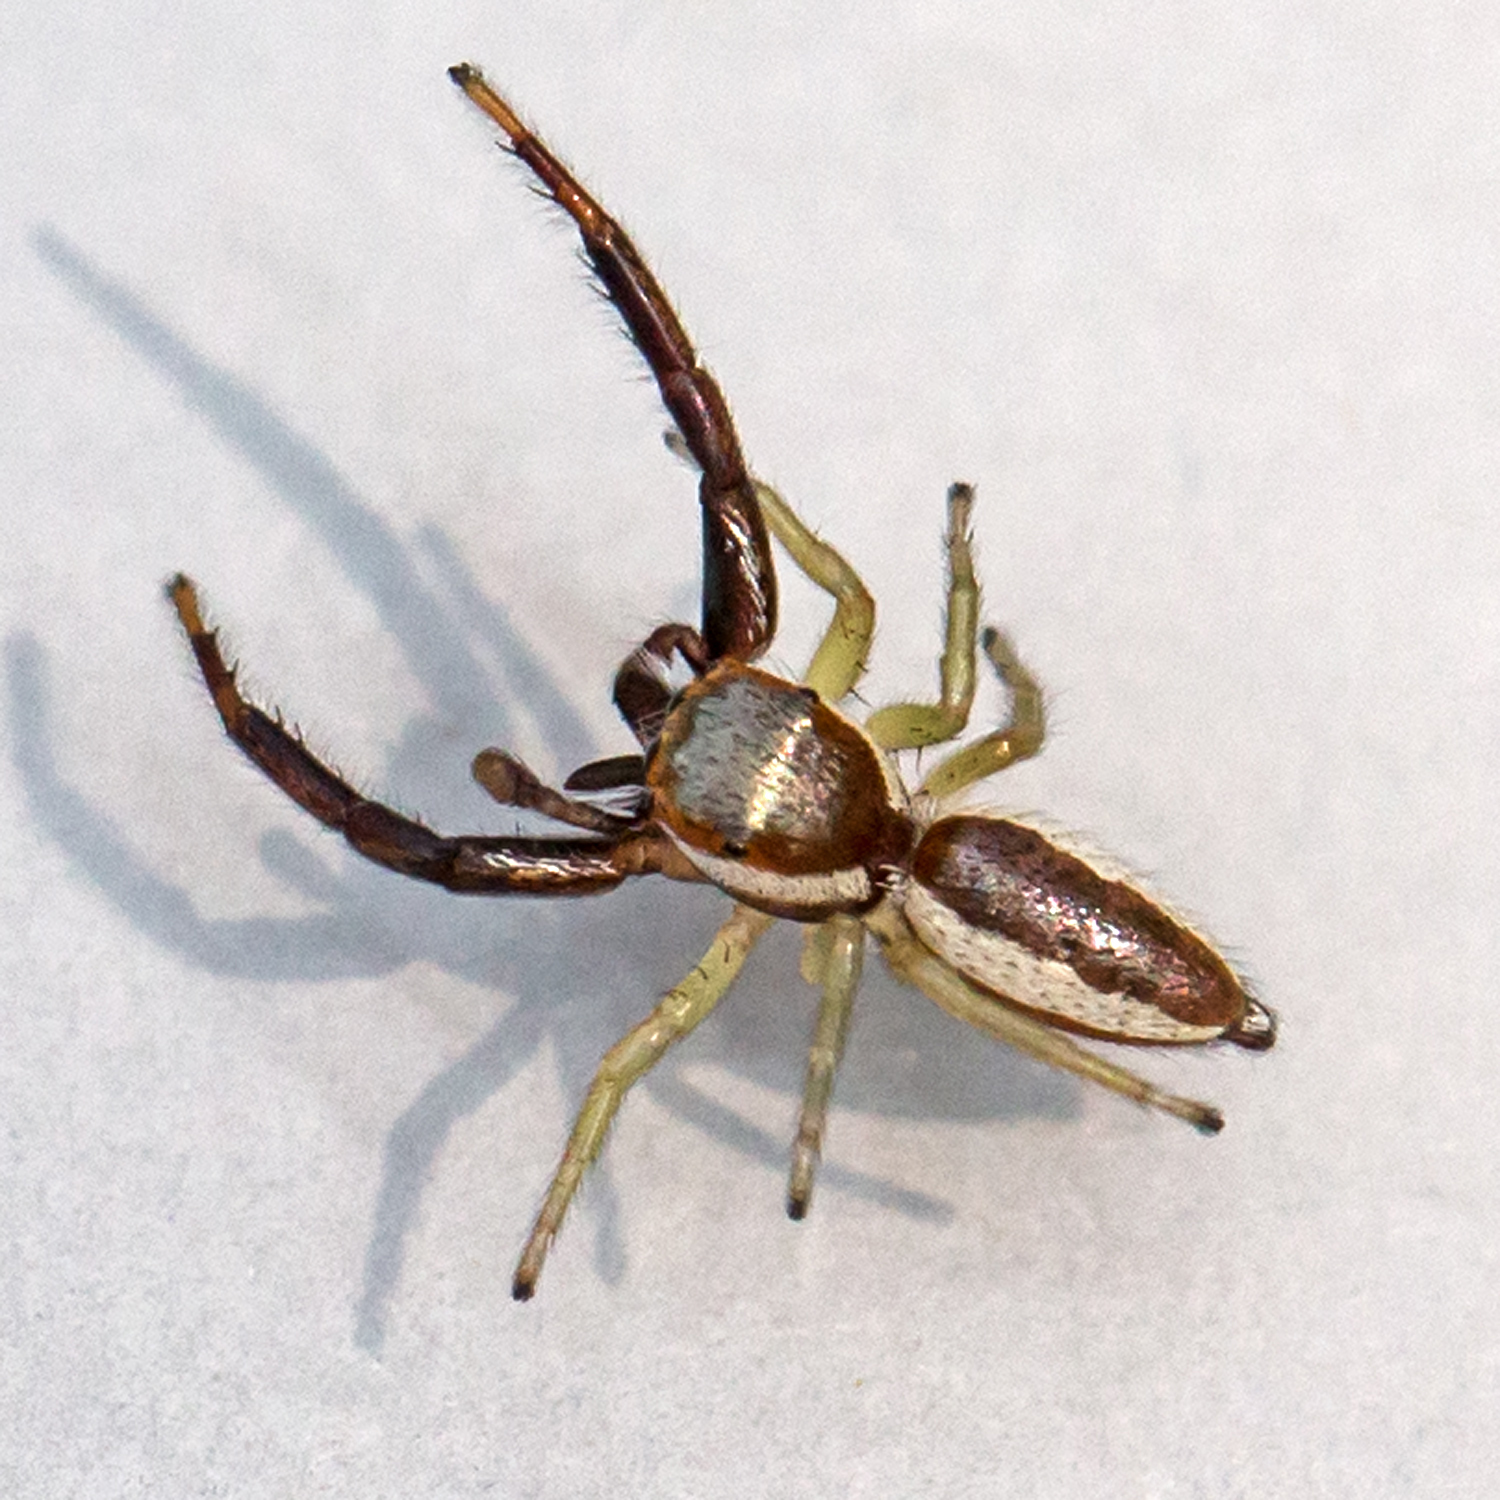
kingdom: Animalia
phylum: Arthropoda
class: Arachnida
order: Araneae
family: Salticidae
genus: Hentzia
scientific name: Hentzia palmarum
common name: Common hentz jumping spider
